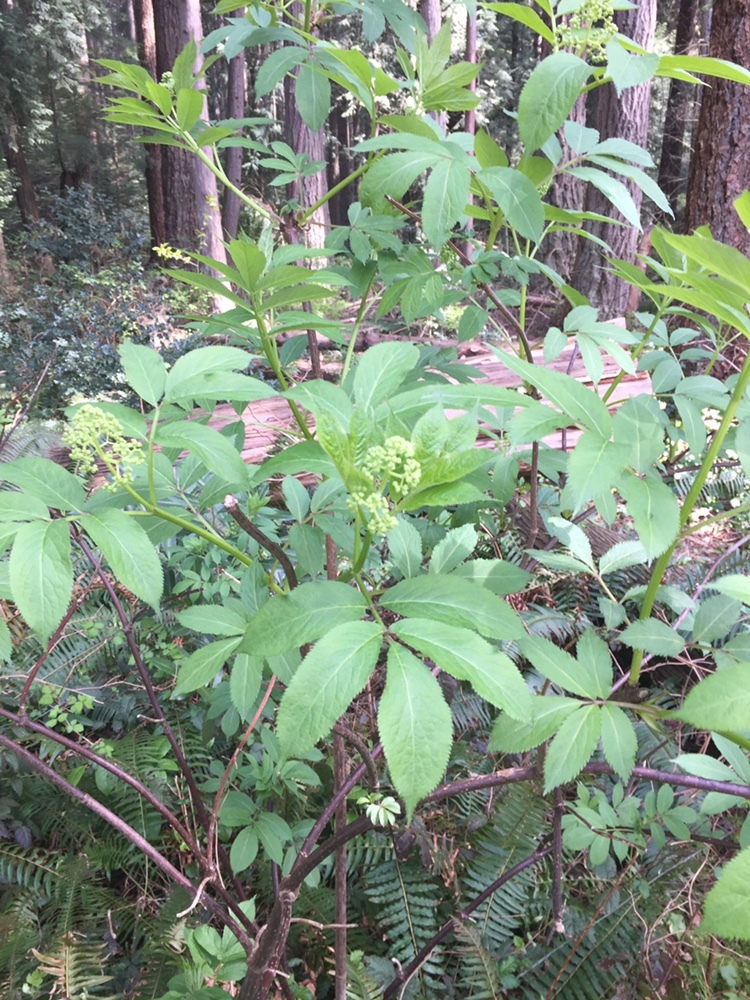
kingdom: Plantae
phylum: Tracheophyta
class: Magnoliopsida
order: Dipsacales
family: Viburnaceae
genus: Sambucus
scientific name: Sambucus racemosa
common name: Red-berried elder
